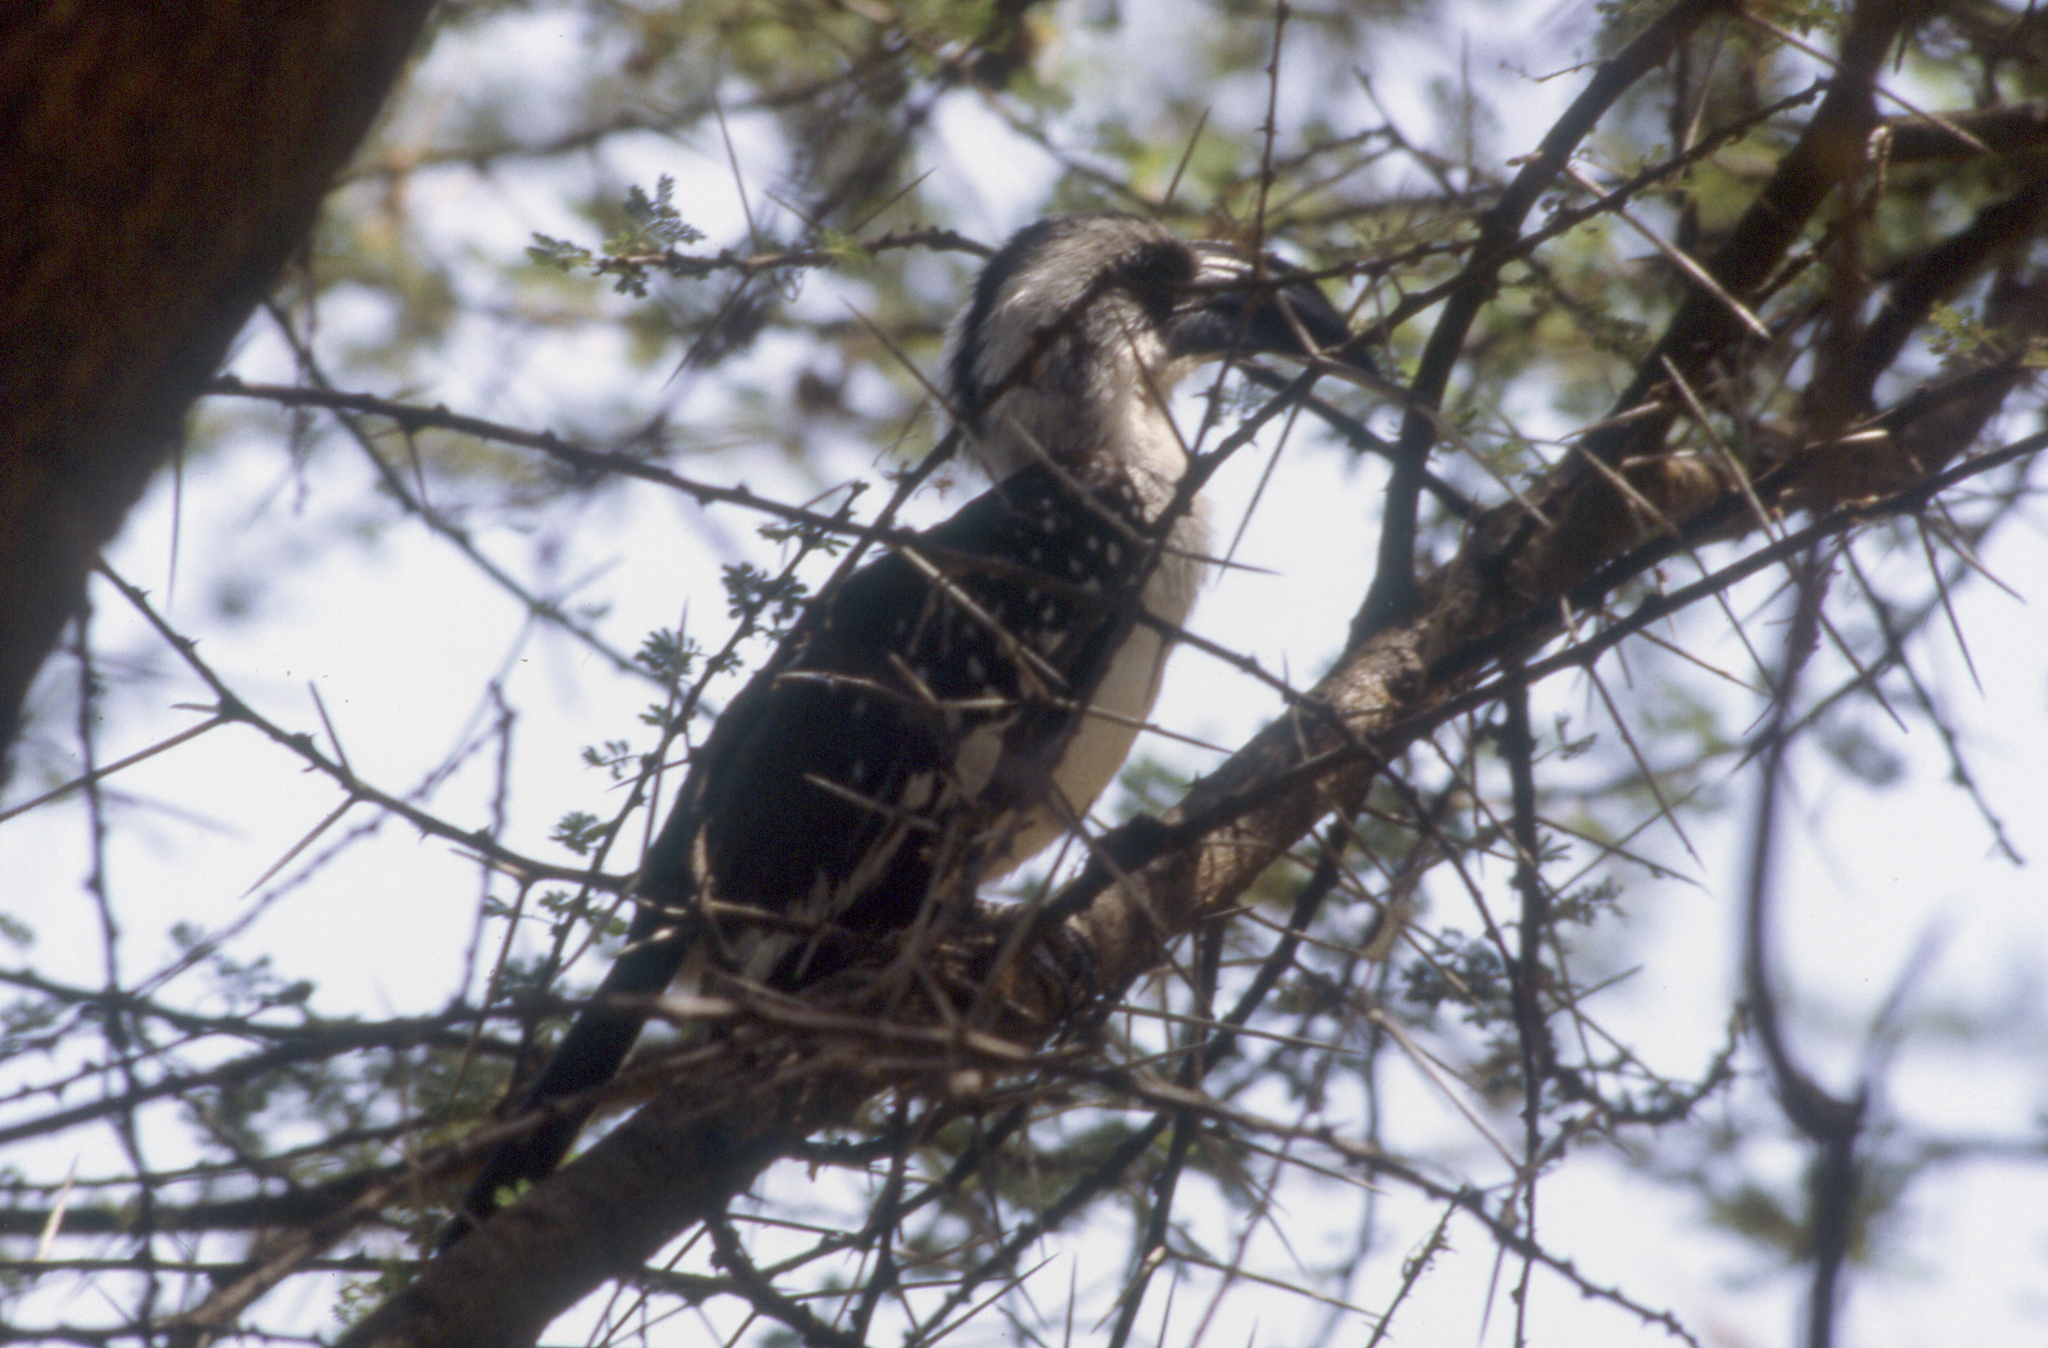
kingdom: Animalia
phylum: Chordata
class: Aves
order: Bucerotiformes
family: Bucerotidae
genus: Tockus
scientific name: Tockus deckeni
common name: Von der decken's hornbill
